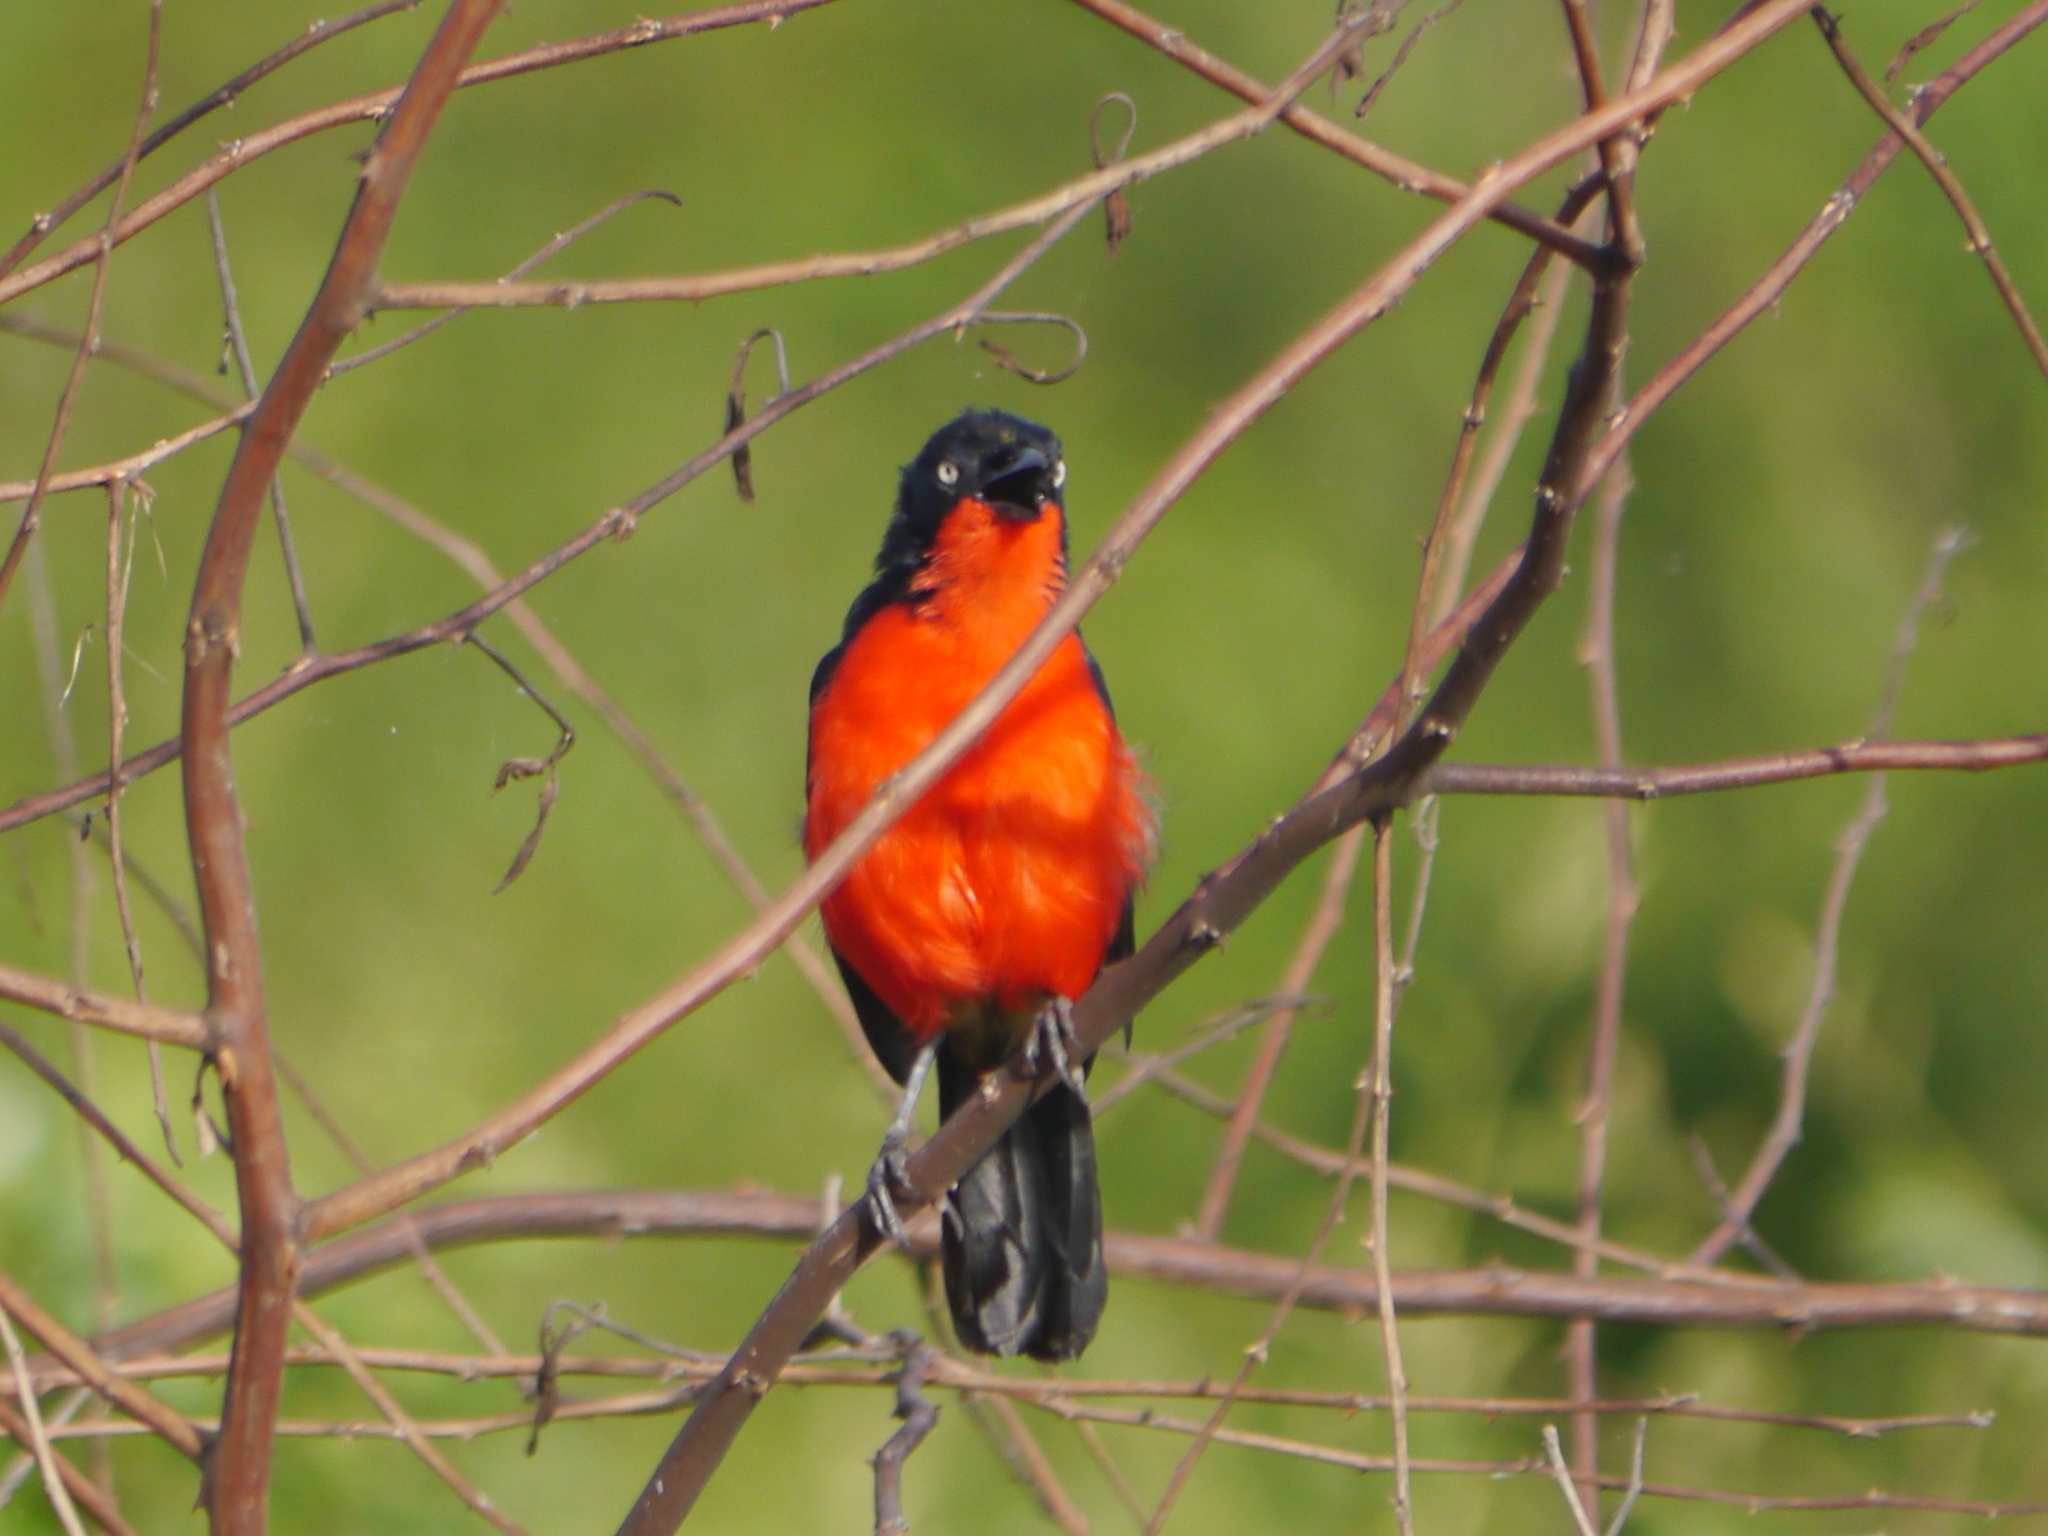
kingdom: Animalia
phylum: Chordata
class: Aves
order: Passeriformes
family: Malaconotidae
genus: Laniarius
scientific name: Laniarius erythrogaster
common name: Black-headed gonolek
